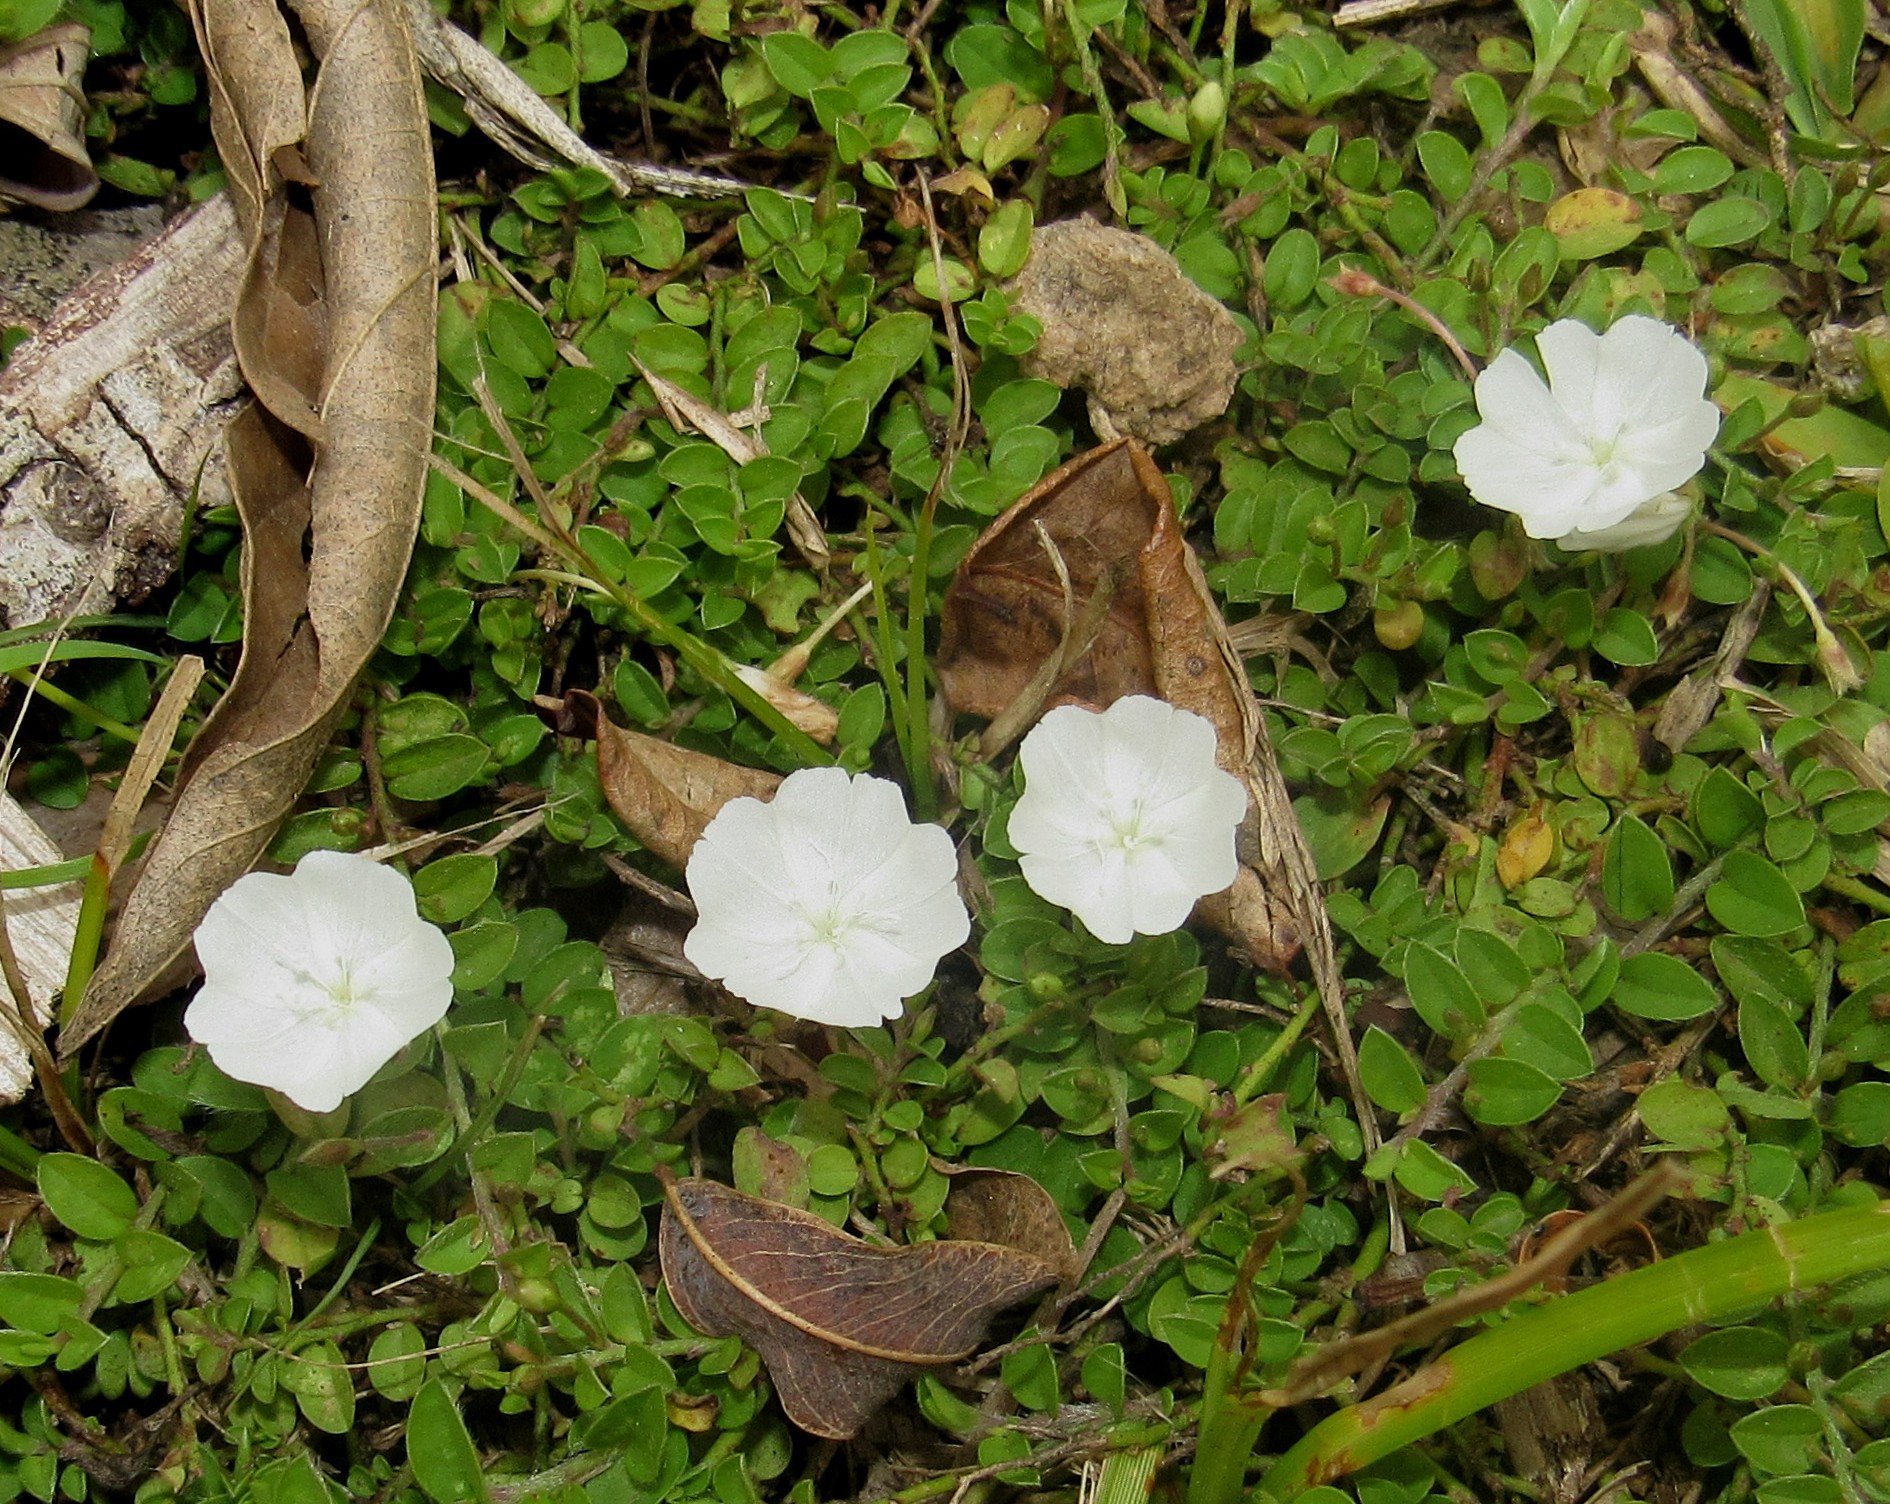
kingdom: Plantae
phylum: Tracheophyta
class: Magnoliopsida
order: Solanales
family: Convolvulaceae
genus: Evolvulus
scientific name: Evolvulus pusillus
